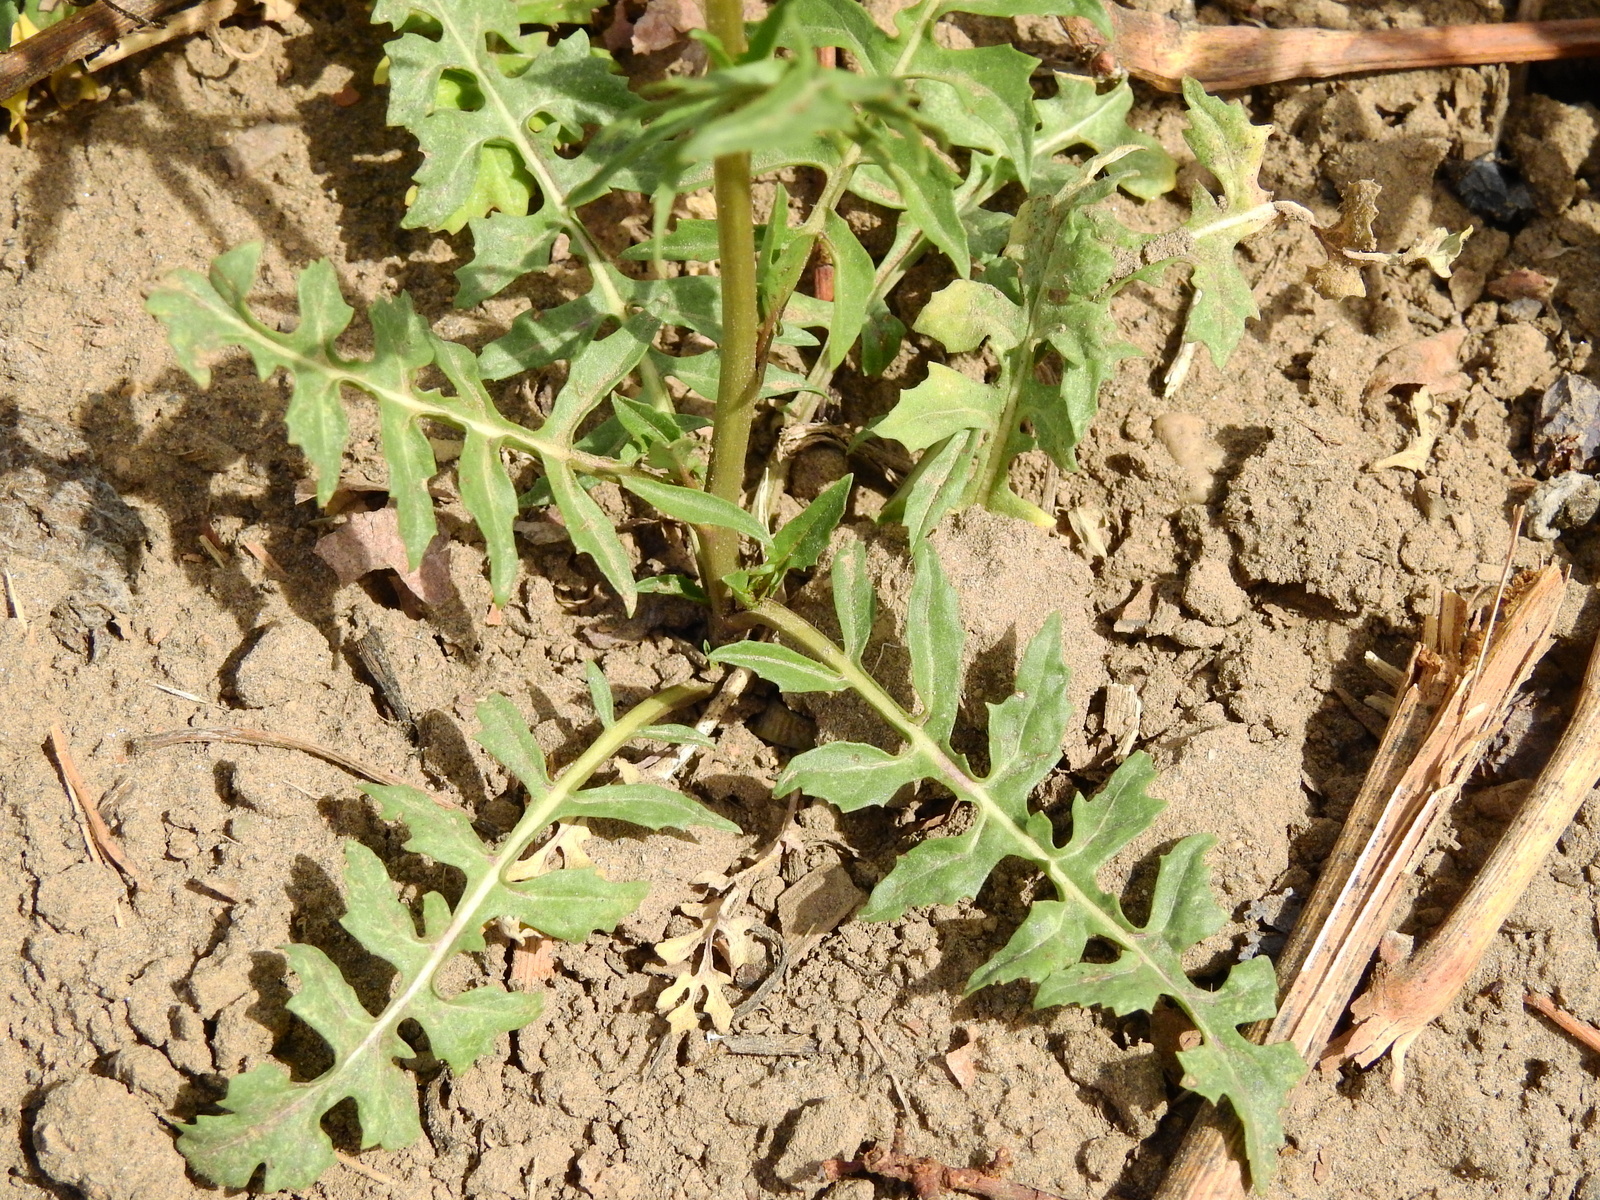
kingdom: Plantae
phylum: Tracheophyta
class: Magnoliopsida
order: Brassicales
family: Brassicaceae
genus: Sisymbrium
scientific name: Sisymbrium irio
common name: London rocket
